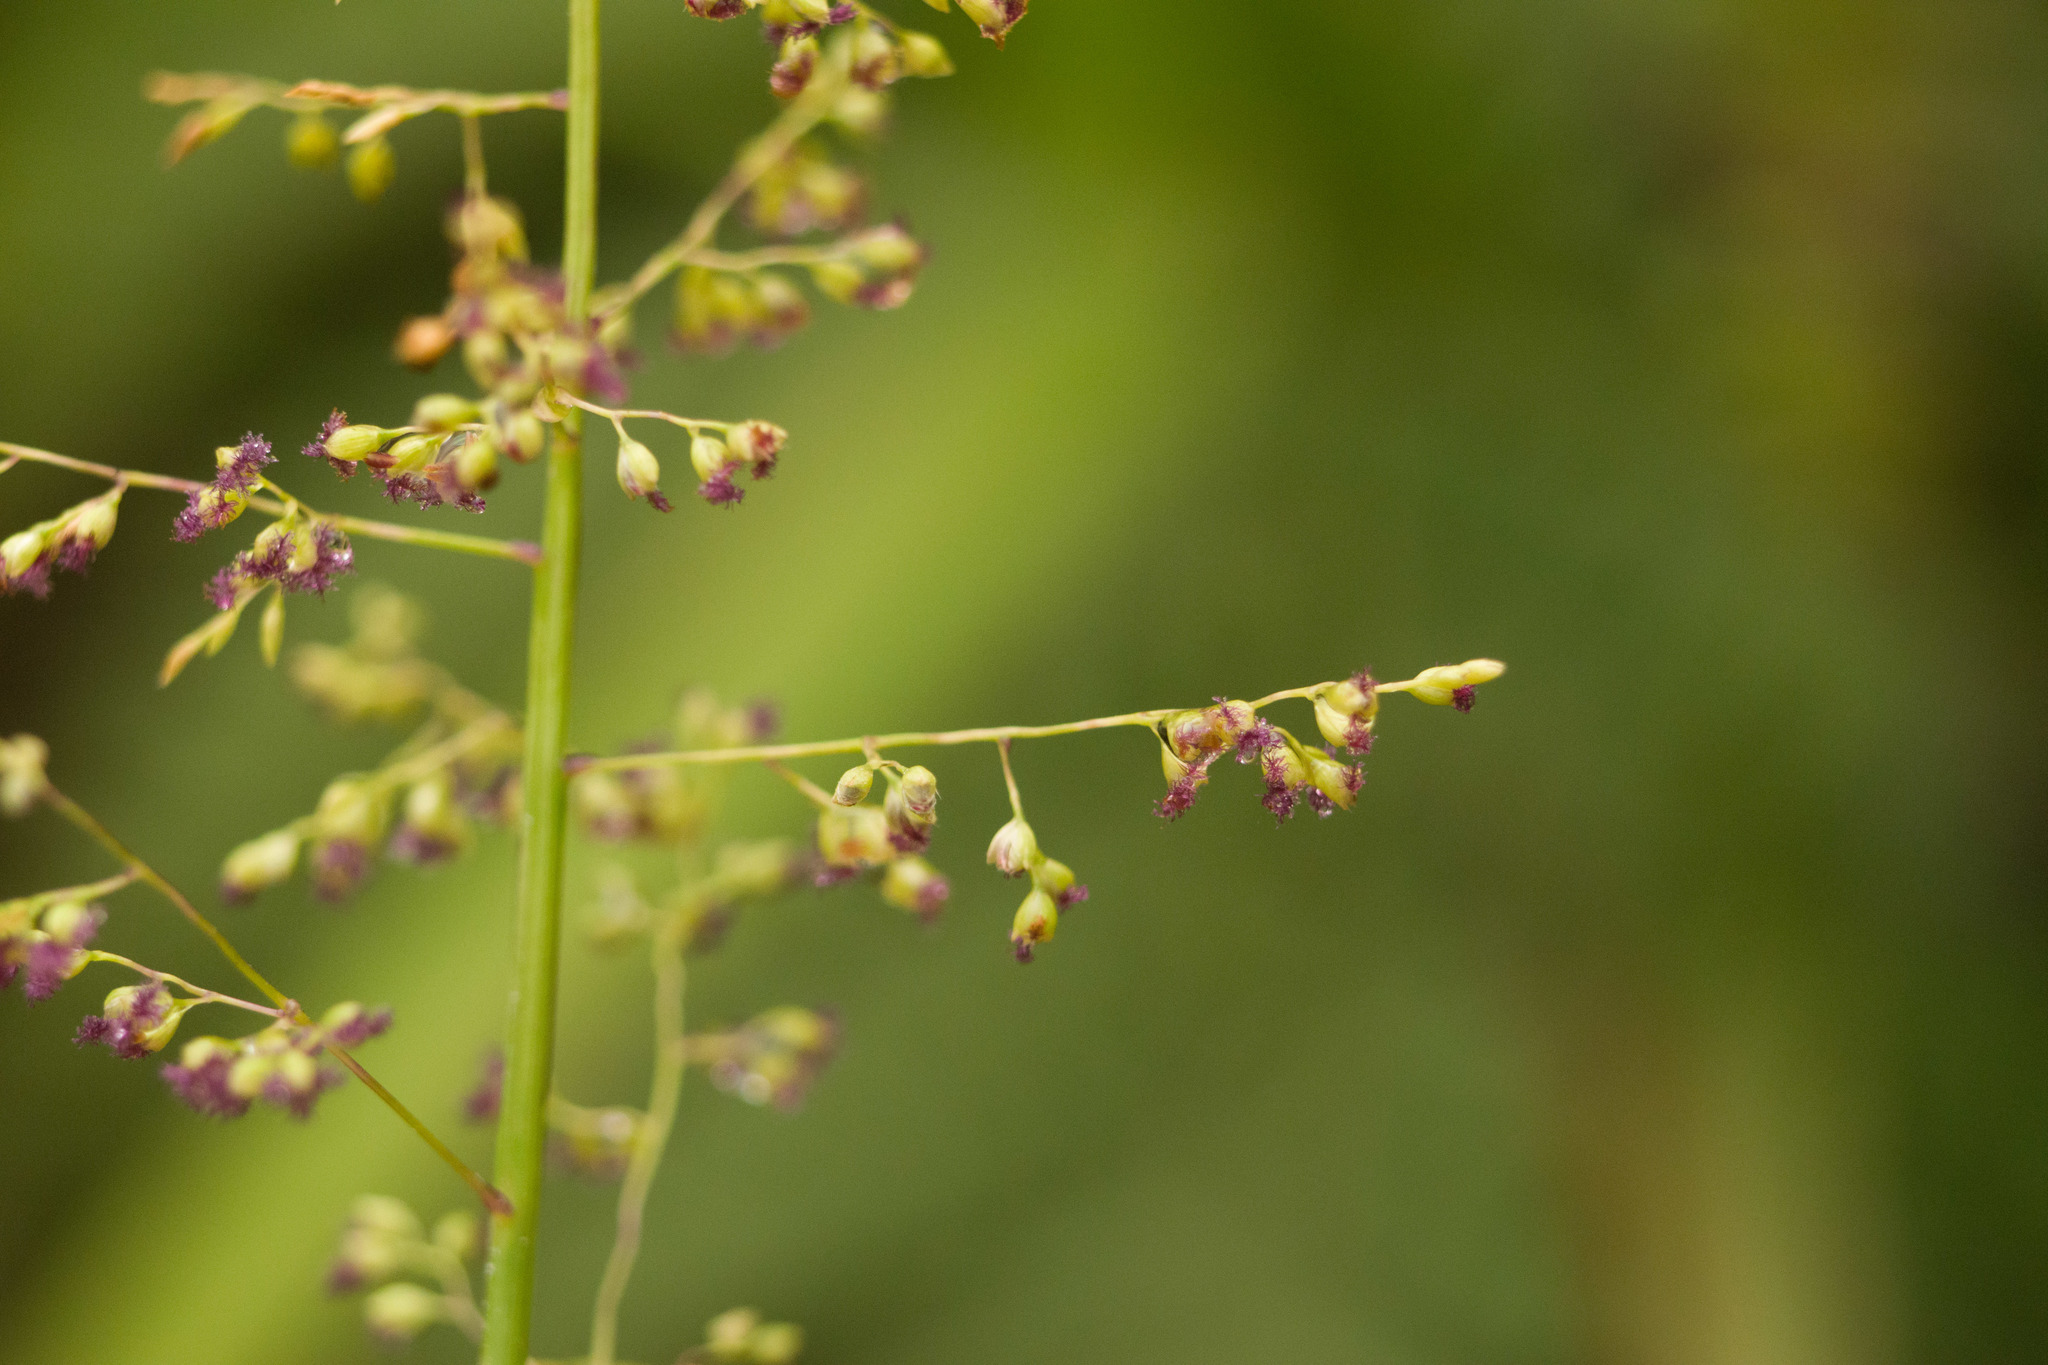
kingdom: Plantae
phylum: Tracheophyta
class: Liliopsida
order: Poales
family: Poaceae
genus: Isachne
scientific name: Isachne distichophylla
